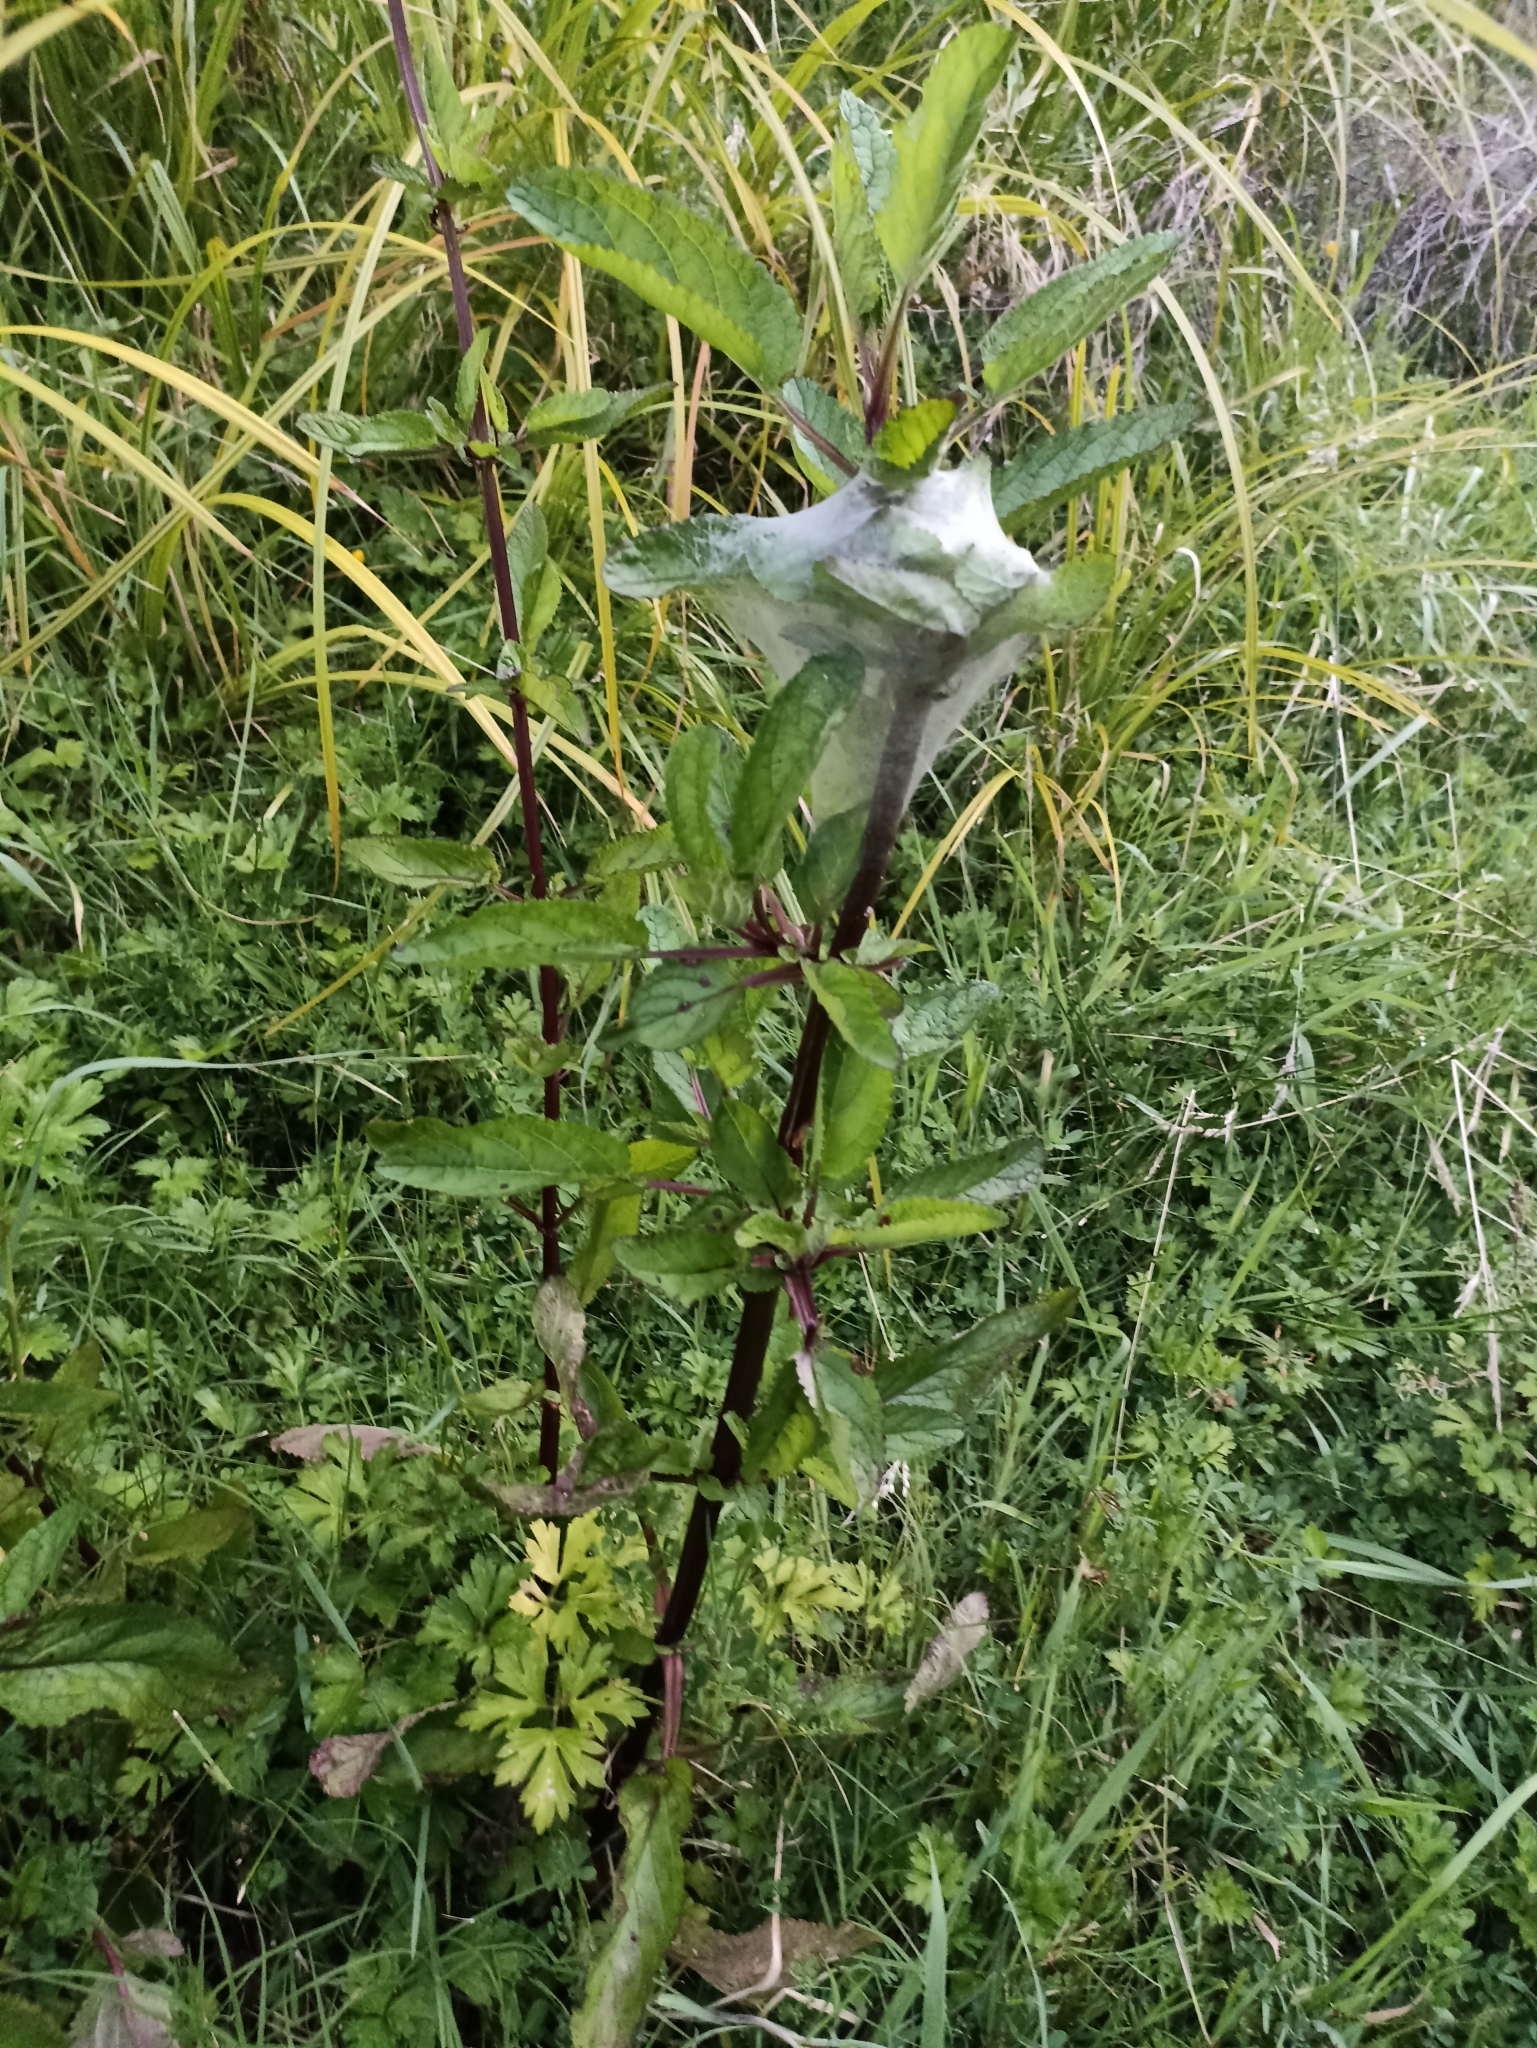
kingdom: Plantae
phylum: Tracheophyta
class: Magnoliopsida
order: Lamiales
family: Scrophulariaceae
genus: Scrophularia
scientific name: Scrophularia auriculata
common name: Water betony
